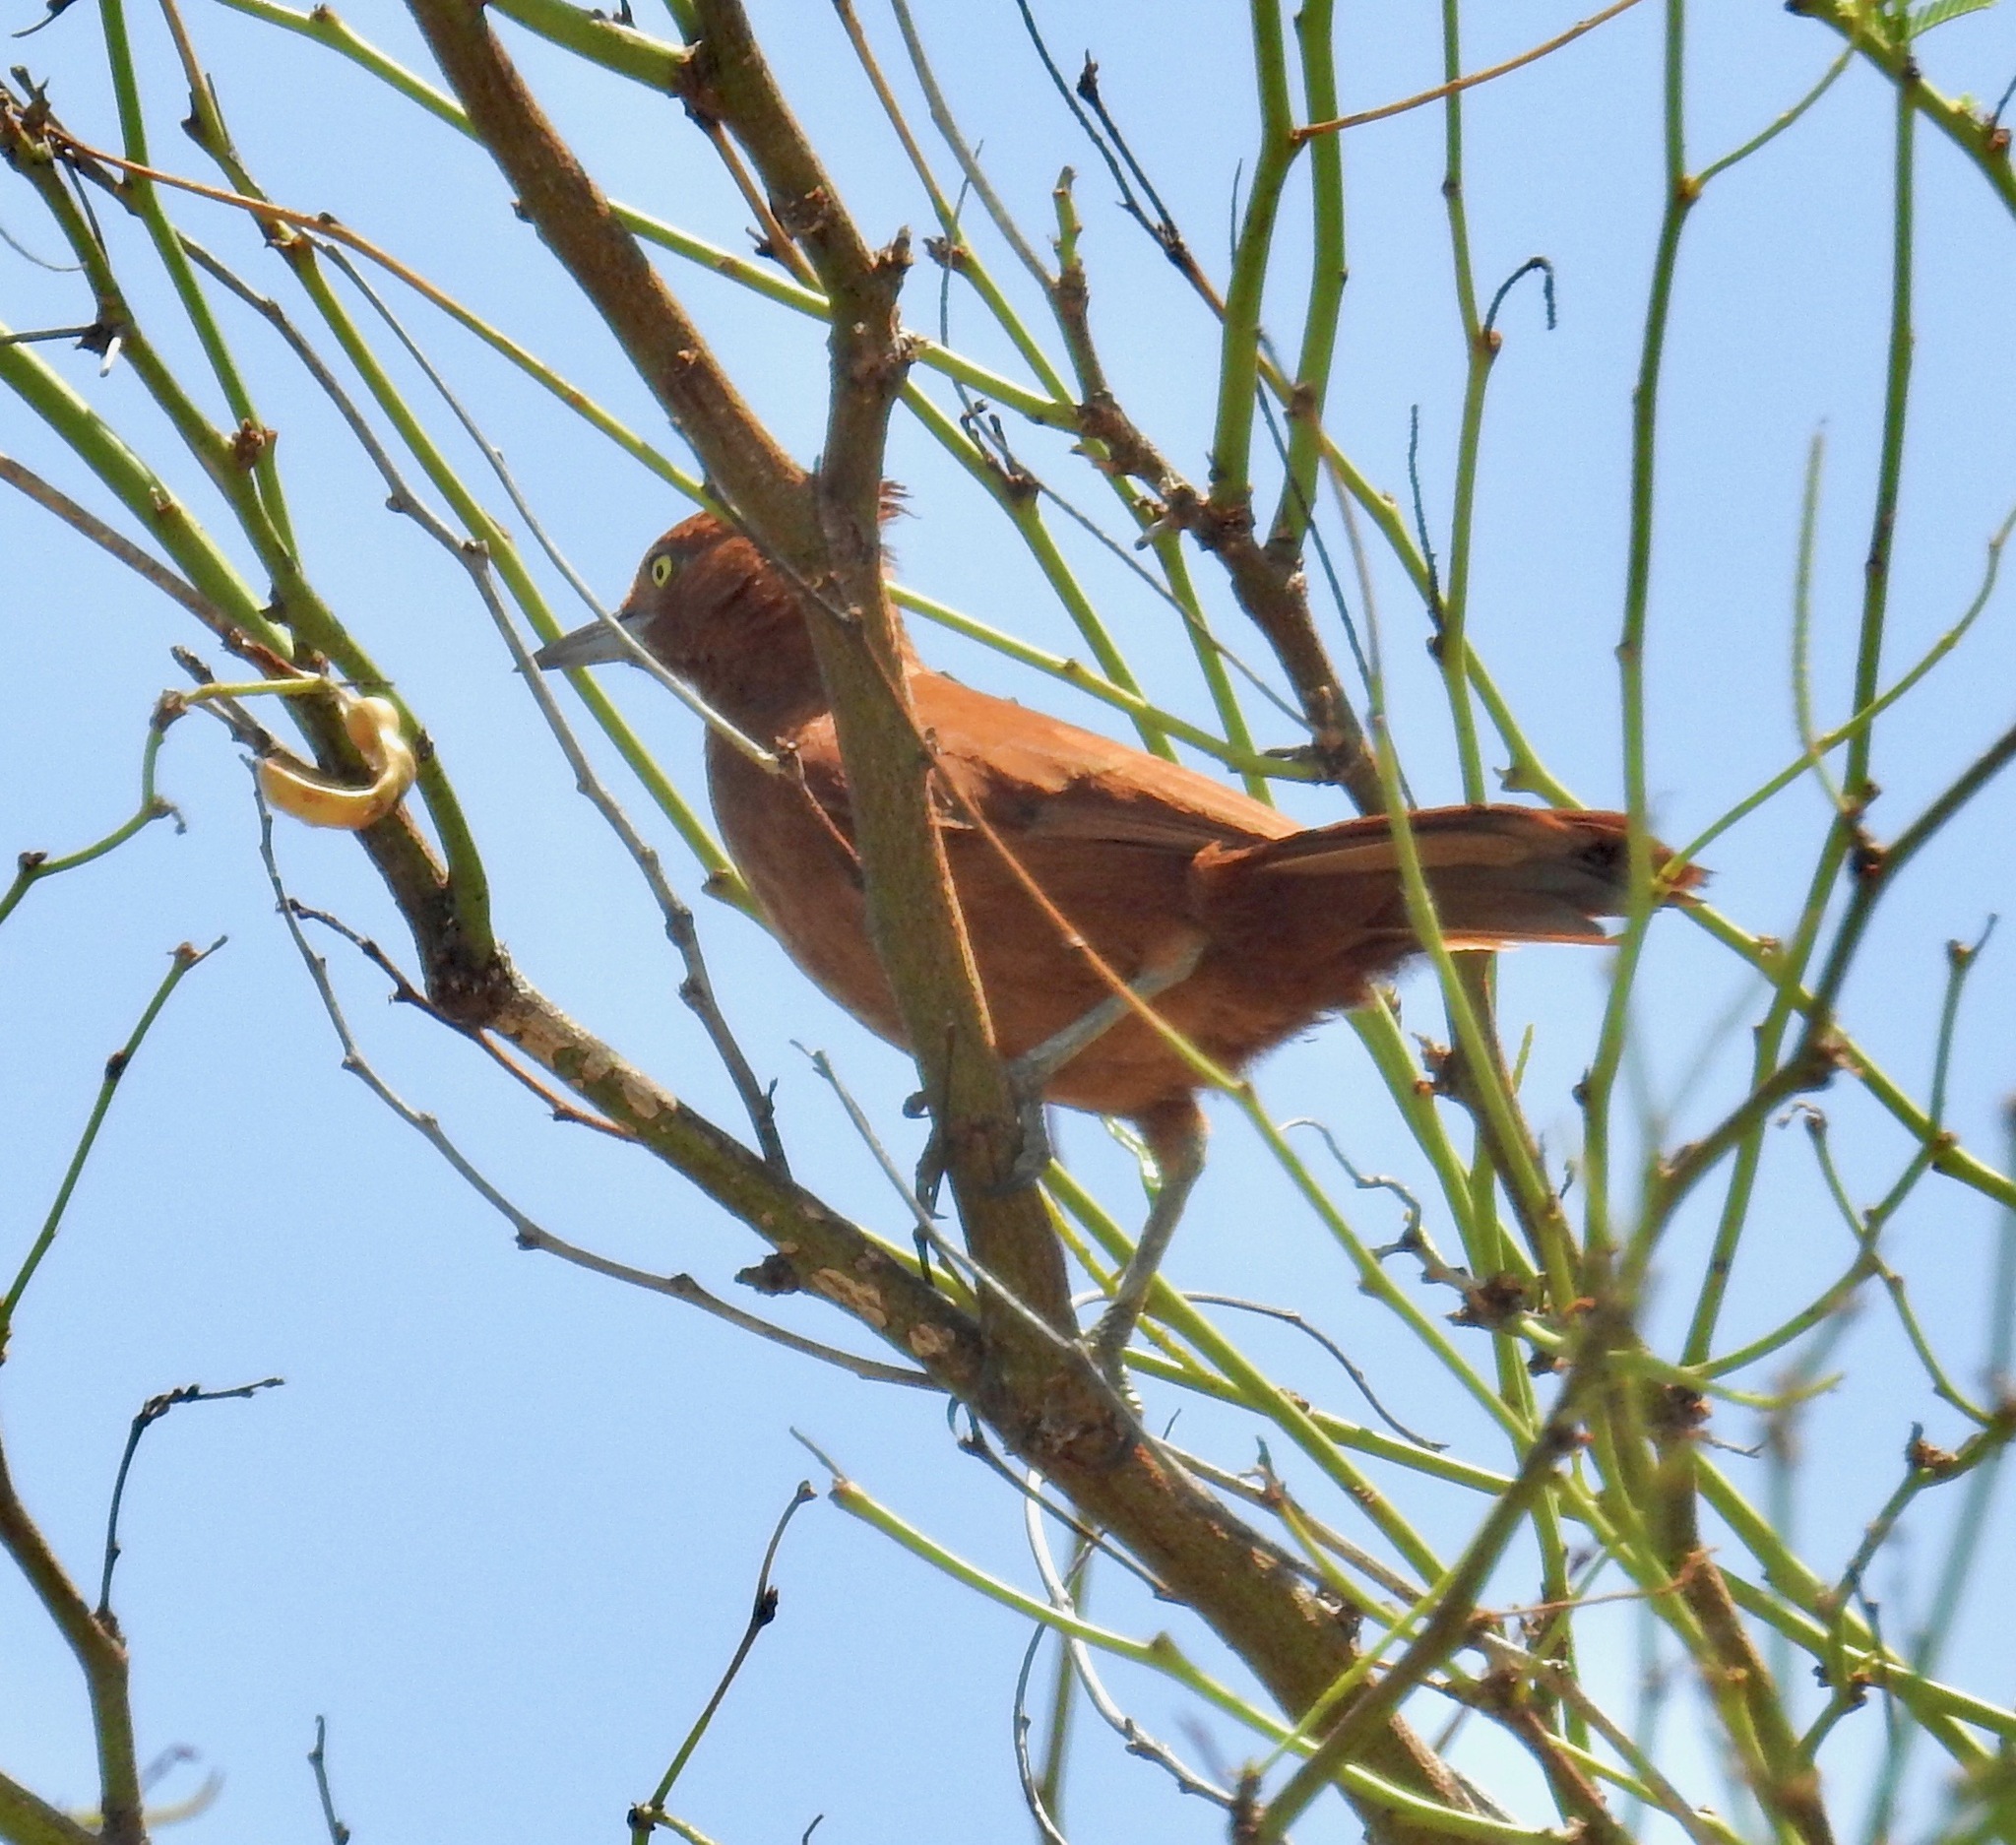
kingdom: Animalia
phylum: Chordata
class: Aves
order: Passeriformes
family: Furnariidae
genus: Pseudoseisura
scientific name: Pseudoseisura cristata
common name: Caatinga cacholote
